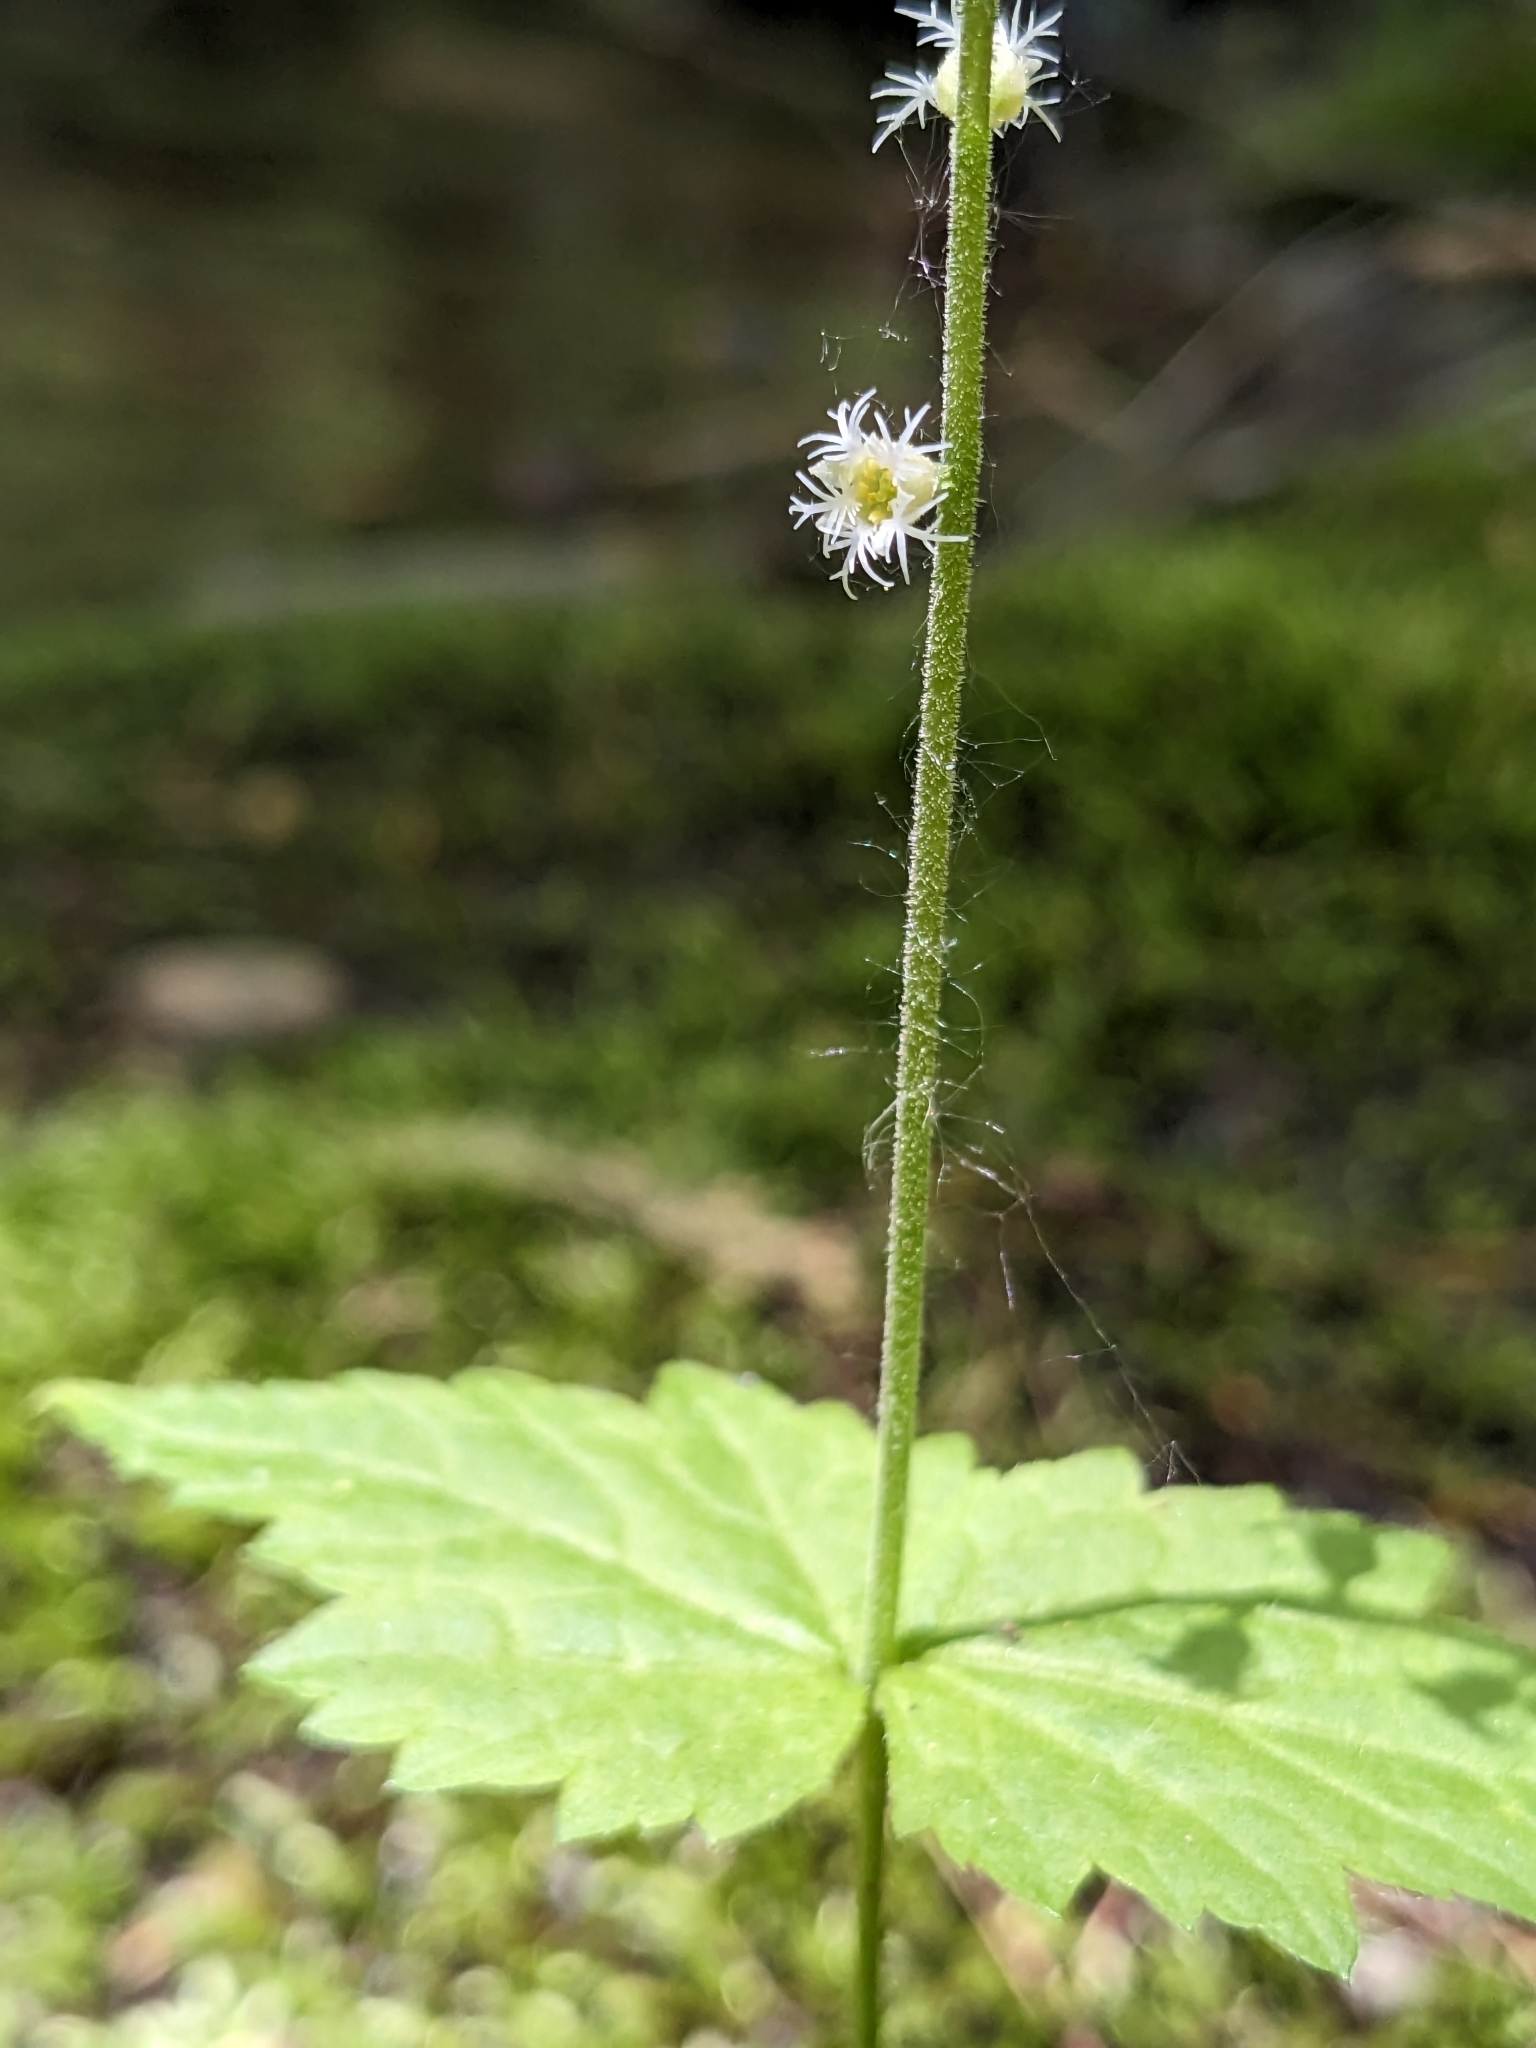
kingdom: Plantae
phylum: Tracheophyta
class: Magnoliopsida
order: Saxifragales
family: Saxifragaceae
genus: Mitella
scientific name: Mitella diphylla
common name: Coolwort
